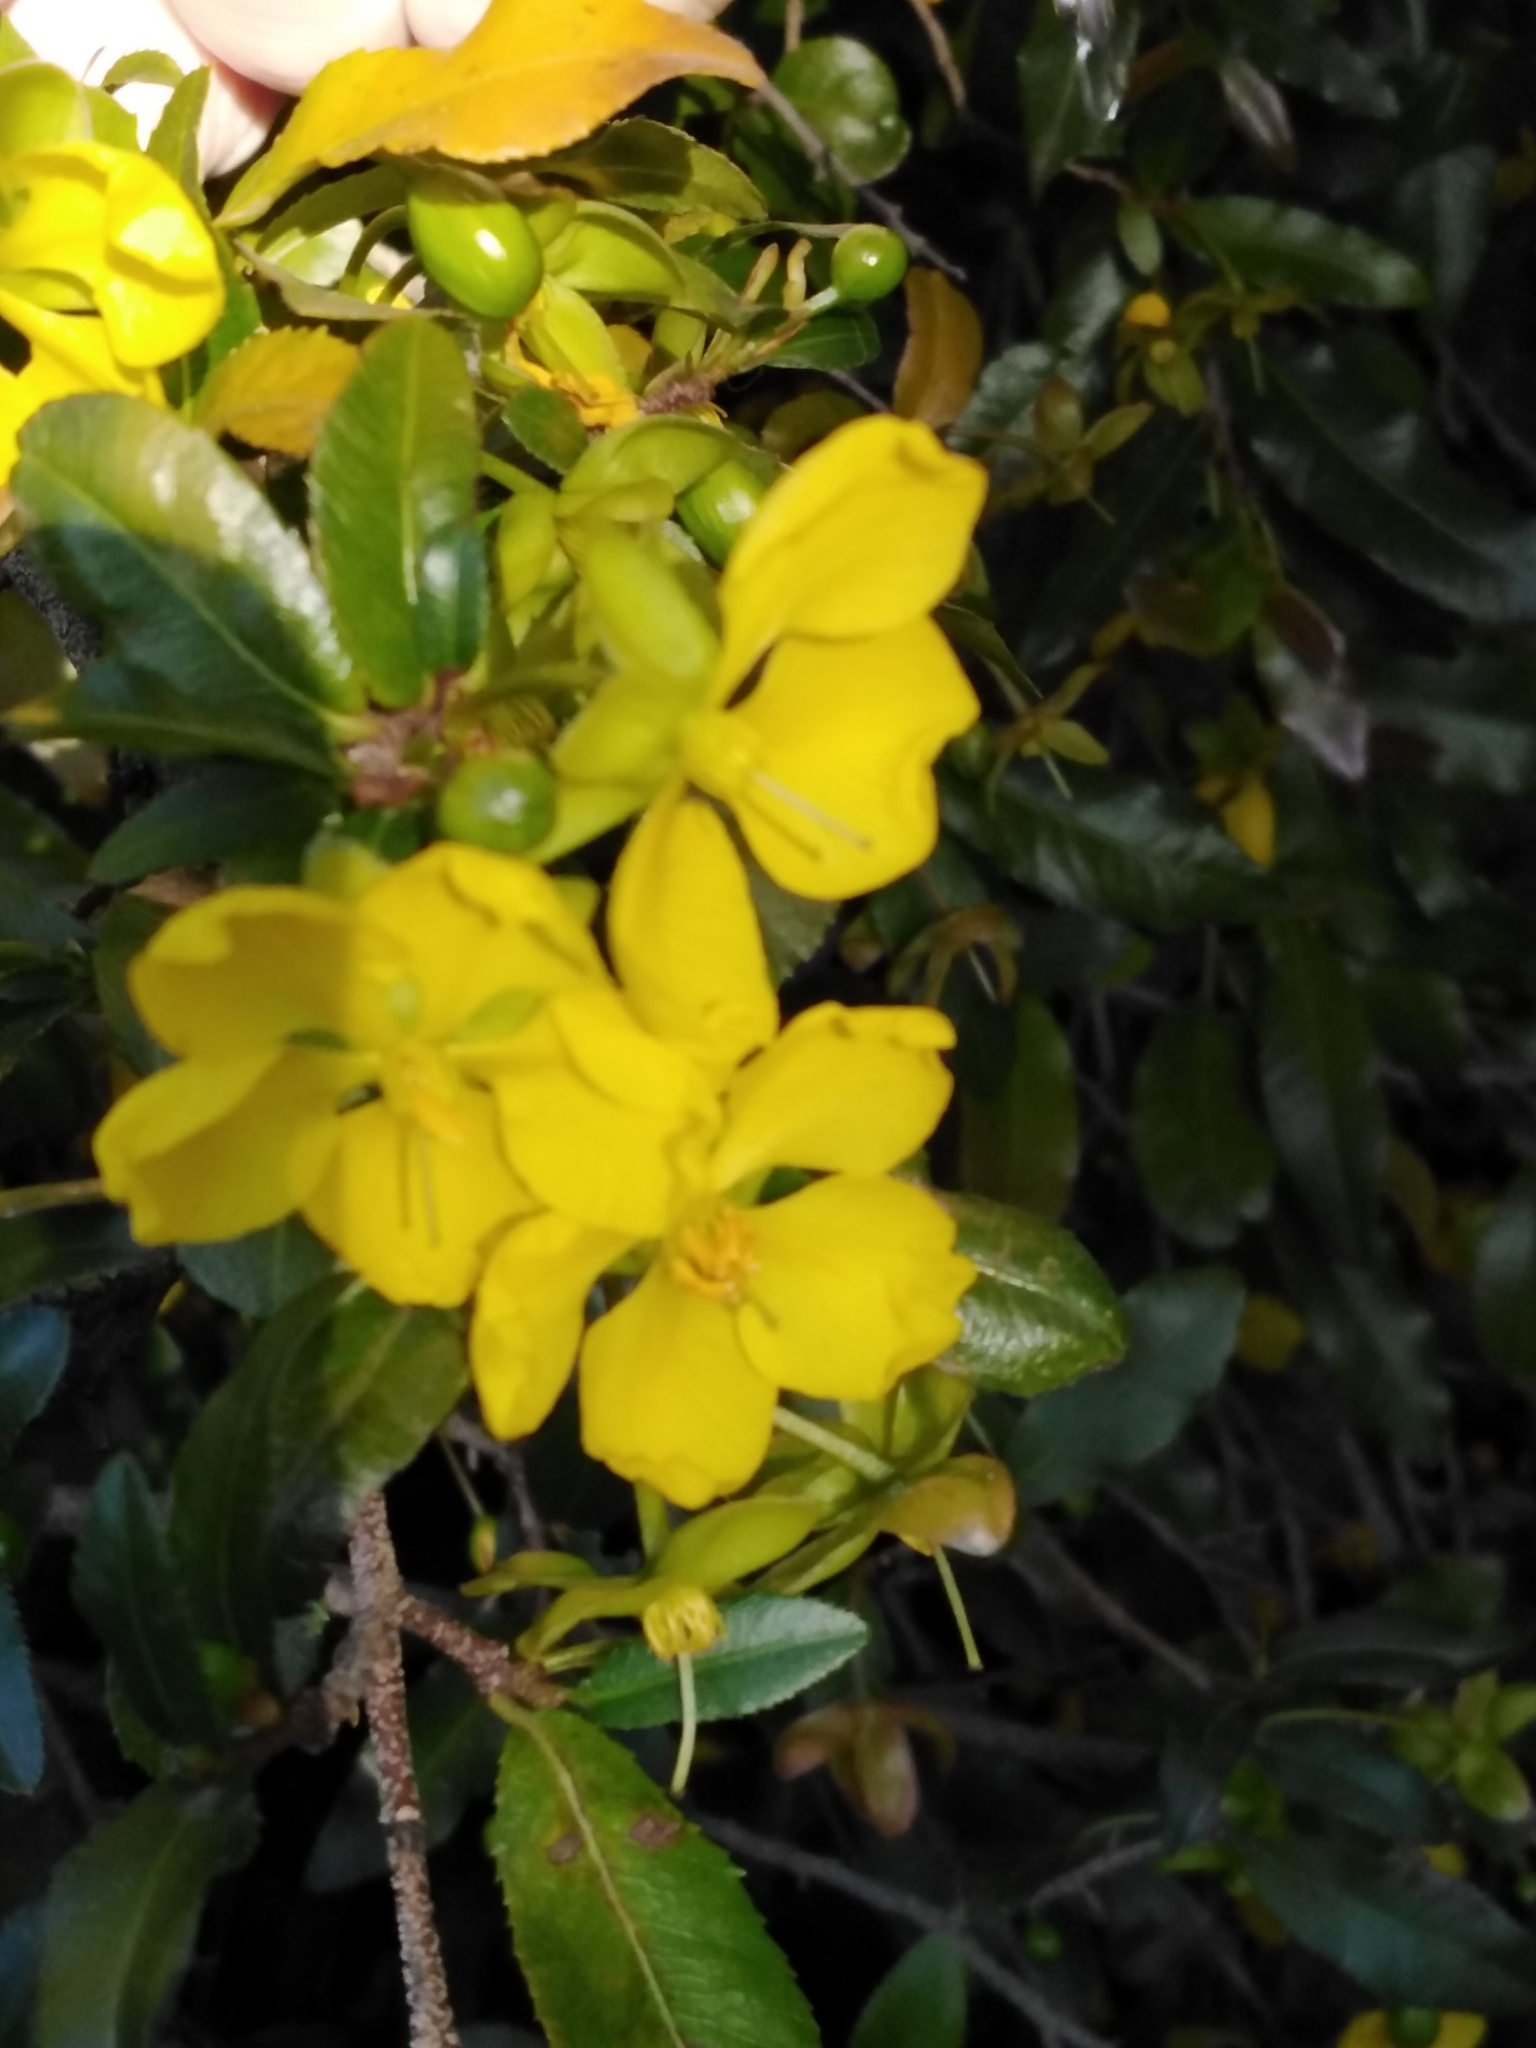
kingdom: Plantae
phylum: Tracheophyta
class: Magnoliopsida
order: Malpighiales
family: Ochnaceae
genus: Ochna
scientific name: Ochna serrulata
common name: Mickey mouse plant
